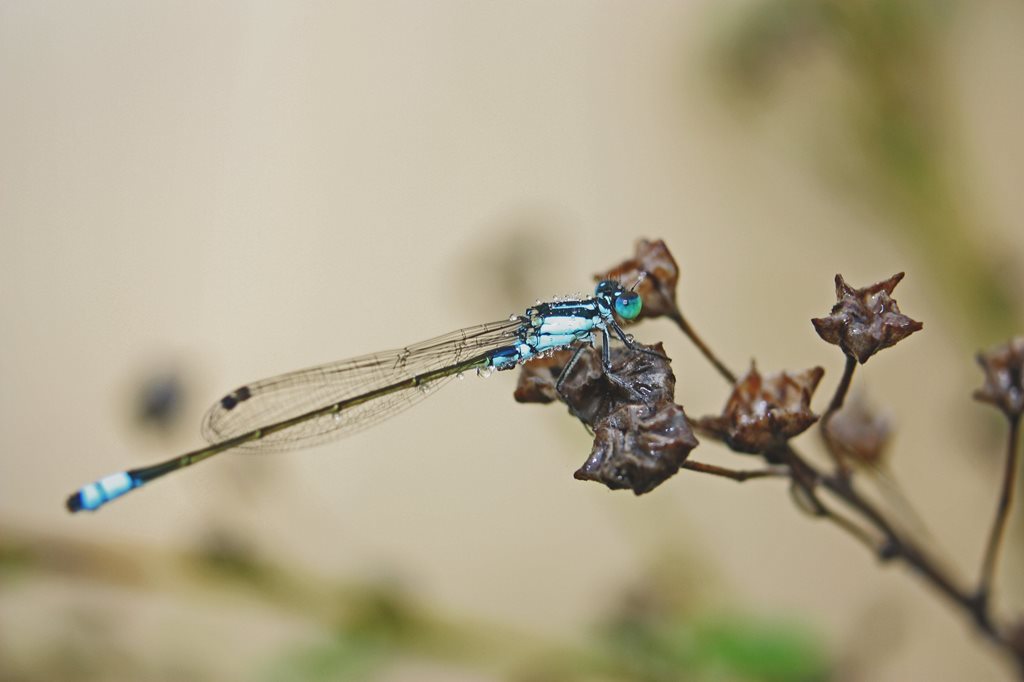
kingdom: Animalia
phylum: Arthropoda
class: Insecta
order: Odonata
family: Coenagrionidae
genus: Ischnura
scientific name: Ischnura heterosticta
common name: Common bluetail
